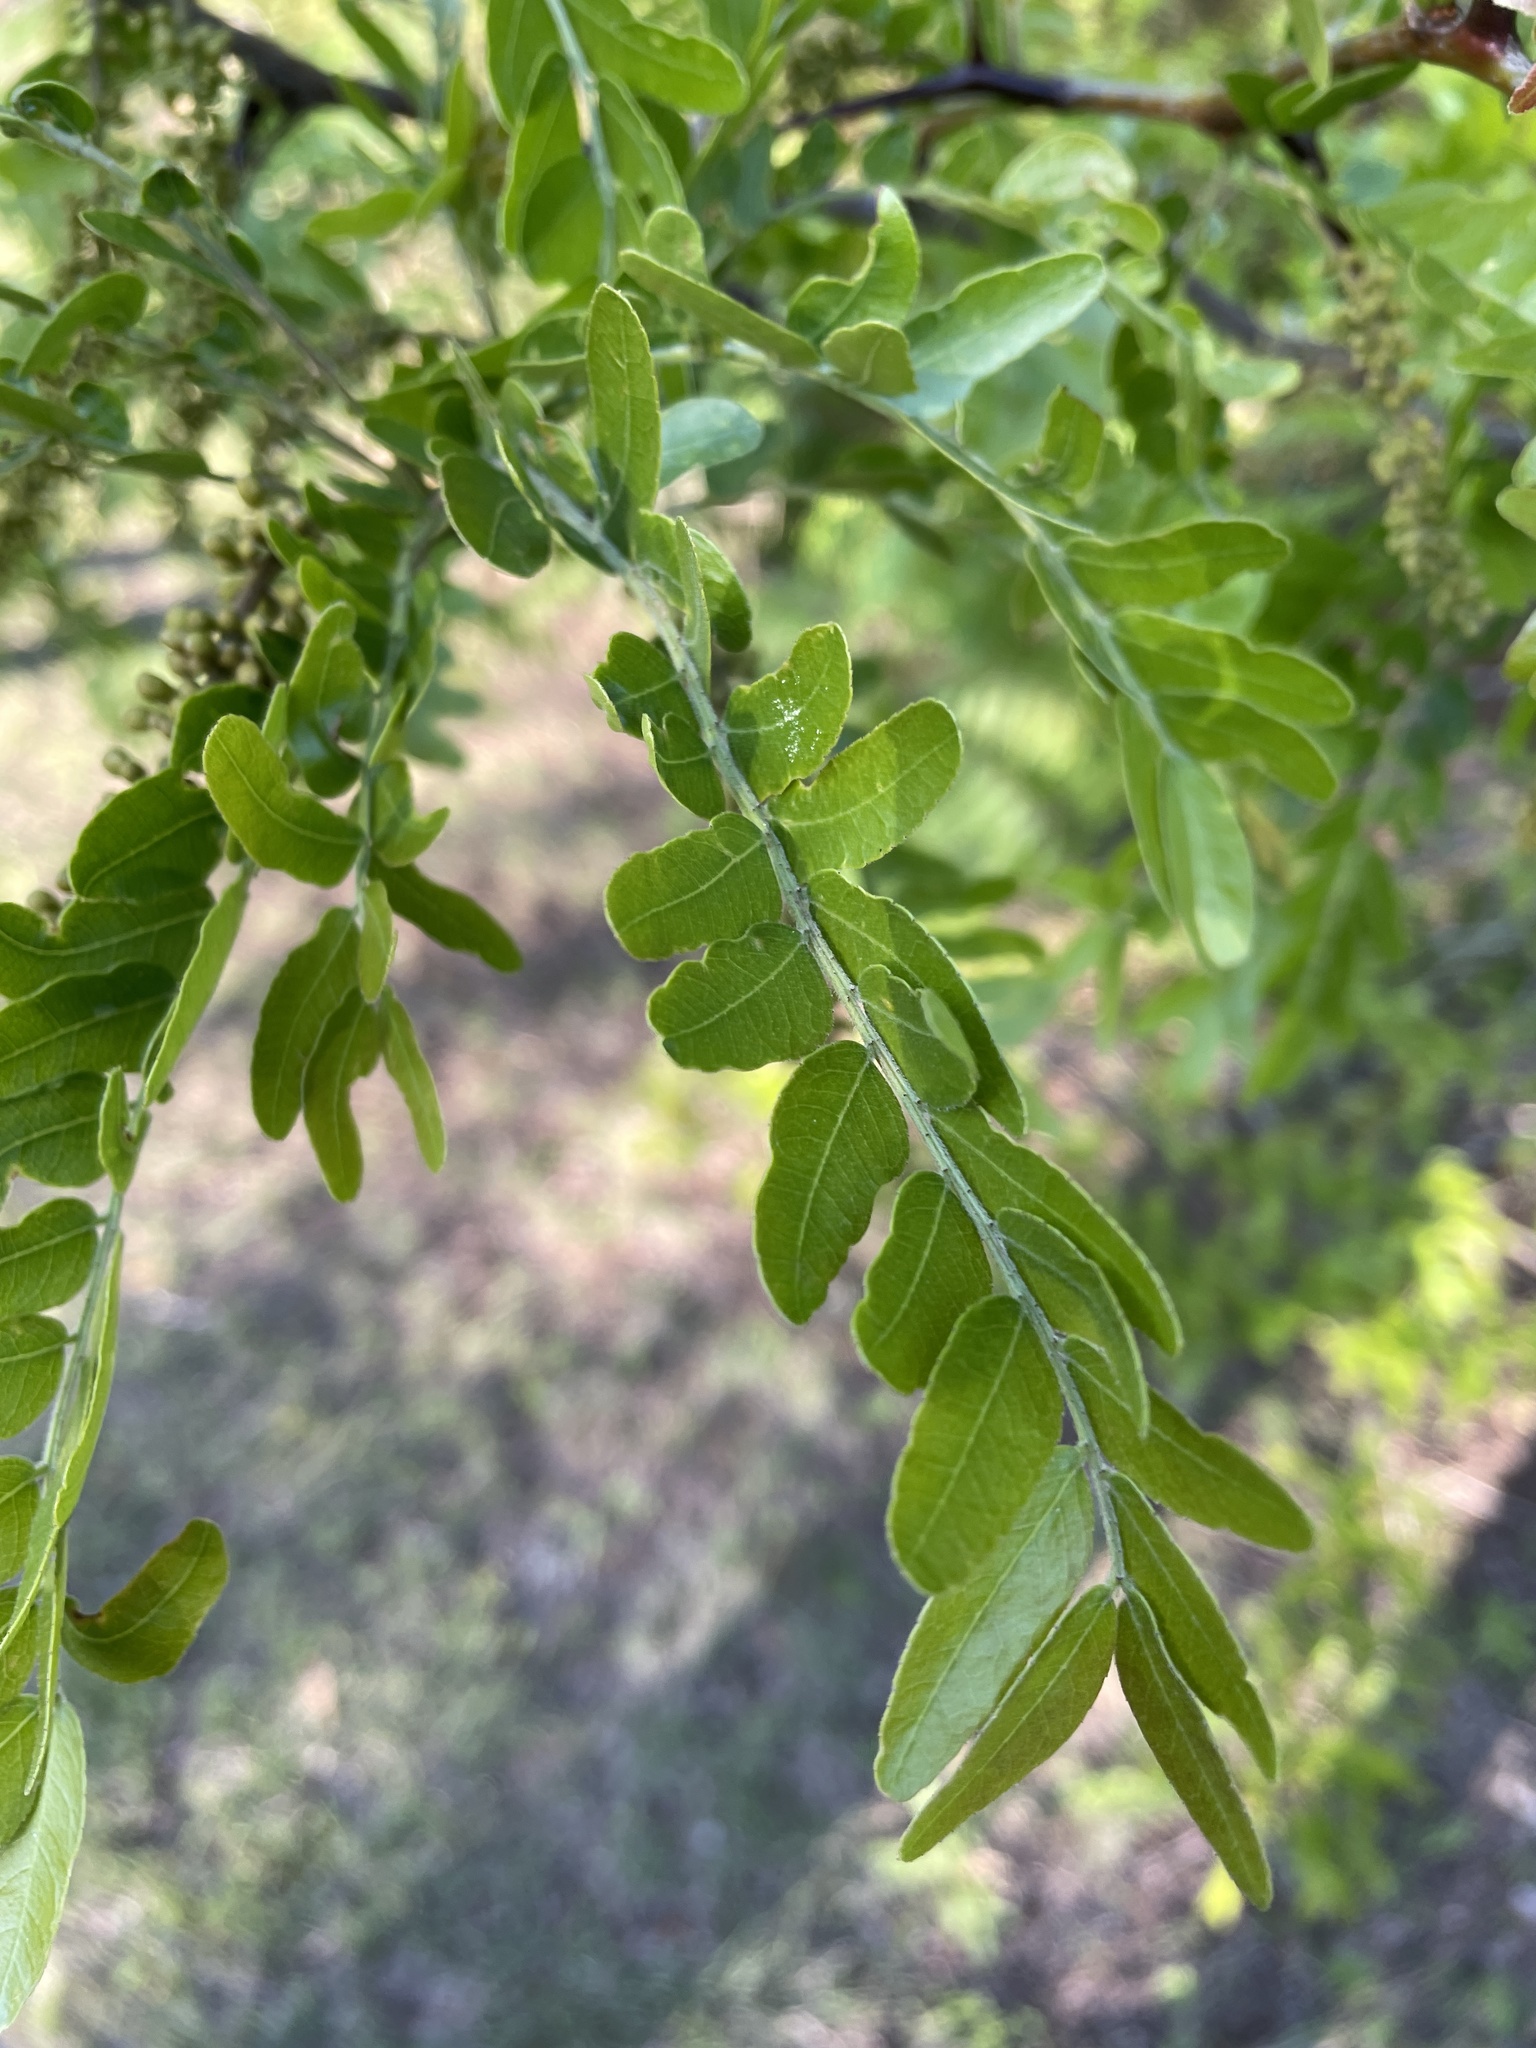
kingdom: Plantae
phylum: Tracheophyta
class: Magnoliopsida
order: Fabales
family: Fabaceae
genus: Gleditsia
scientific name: Gleditsia triacanthos
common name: Common honeylocust
